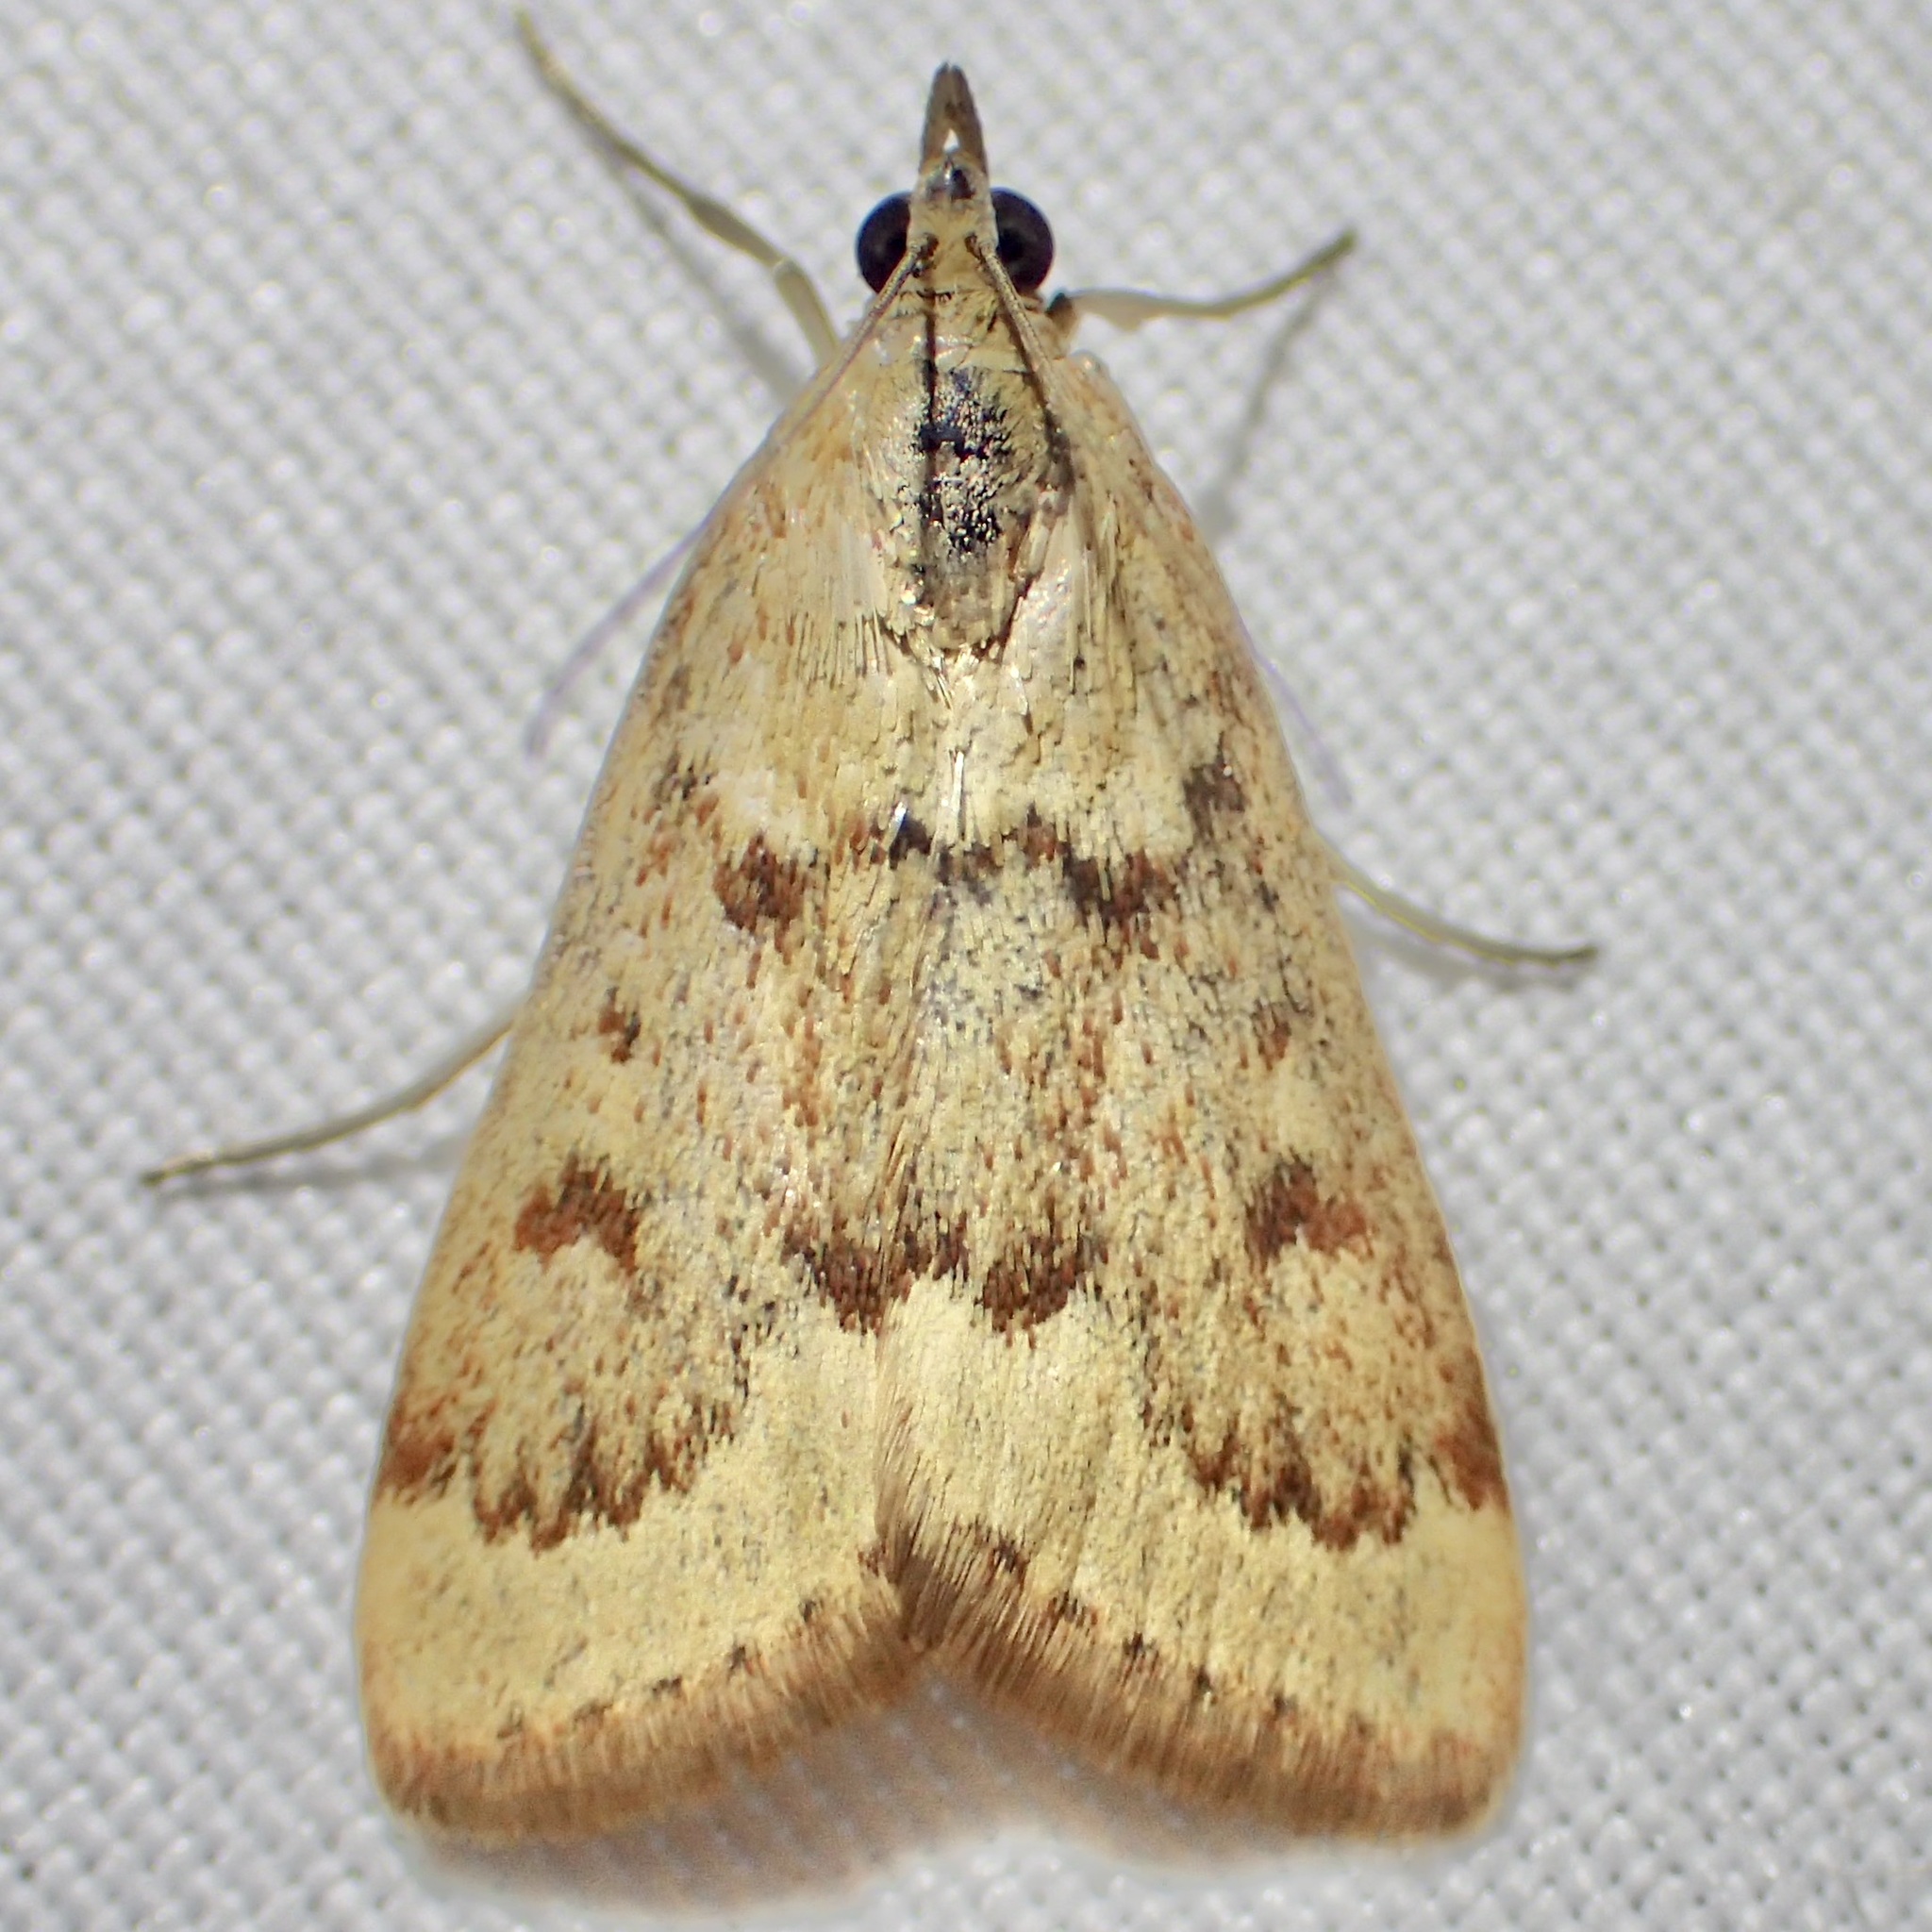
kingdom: Animalia
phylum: Arthropoda
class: Insecta
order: Lepidoptera
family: Crambidae
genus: Achyra
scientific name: Achyra rantalis
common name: Garden webworm
